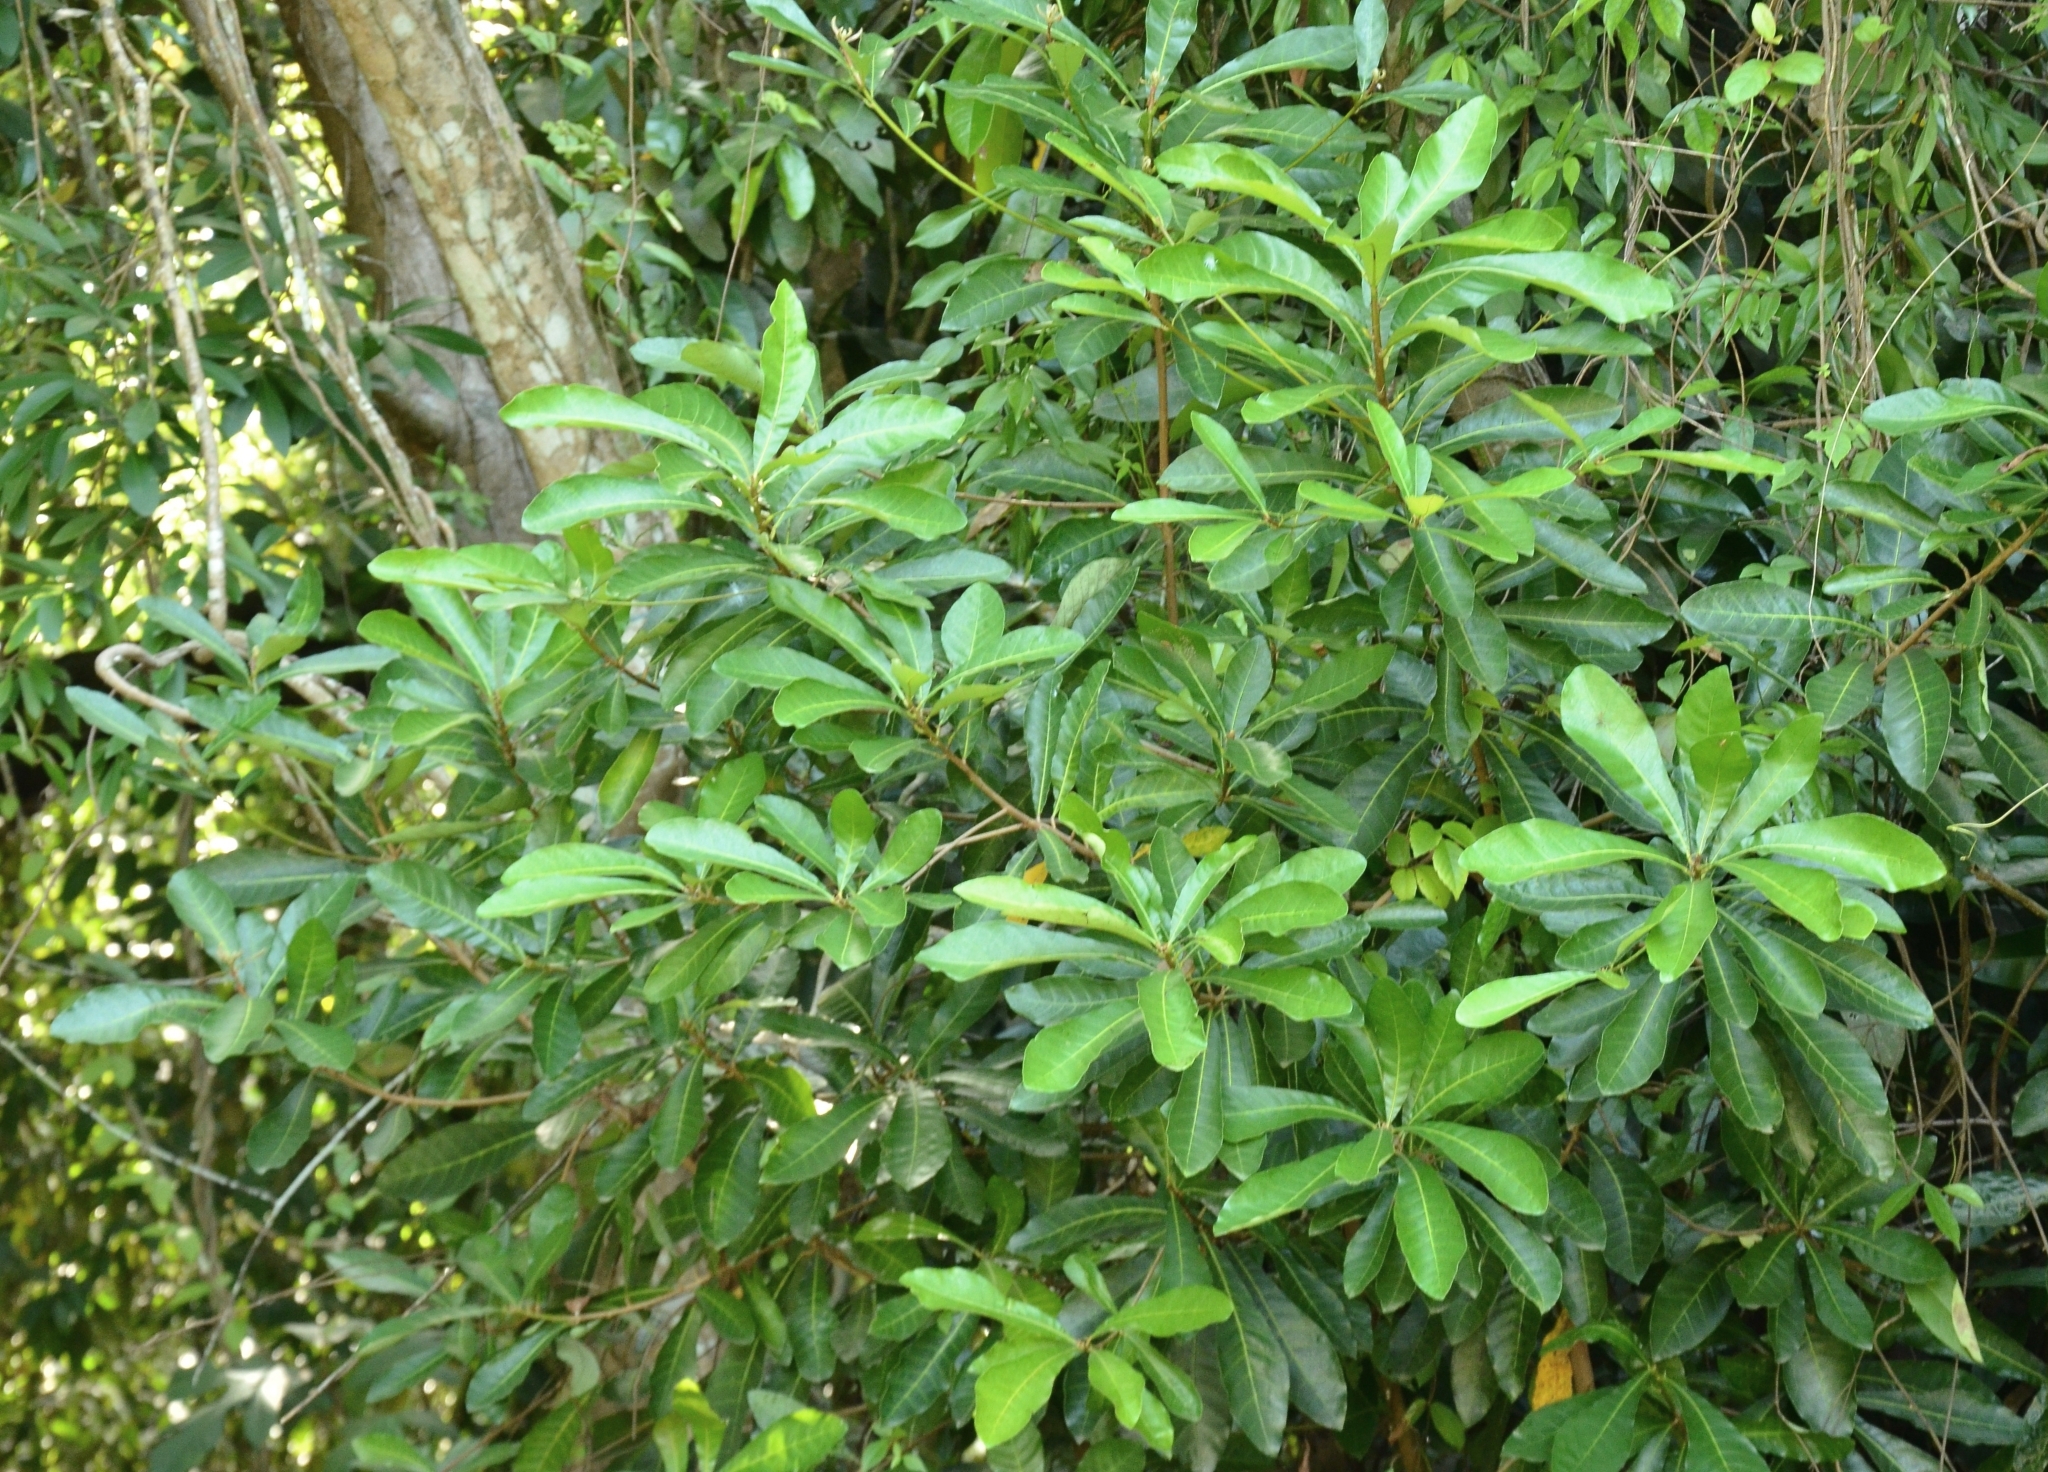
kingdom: Plantae
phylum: Tracheophyta
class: Magnoliopsida
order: Sapindales
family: Anacardiaceae
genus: Holigarna
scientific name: Holigarna arnottiana
